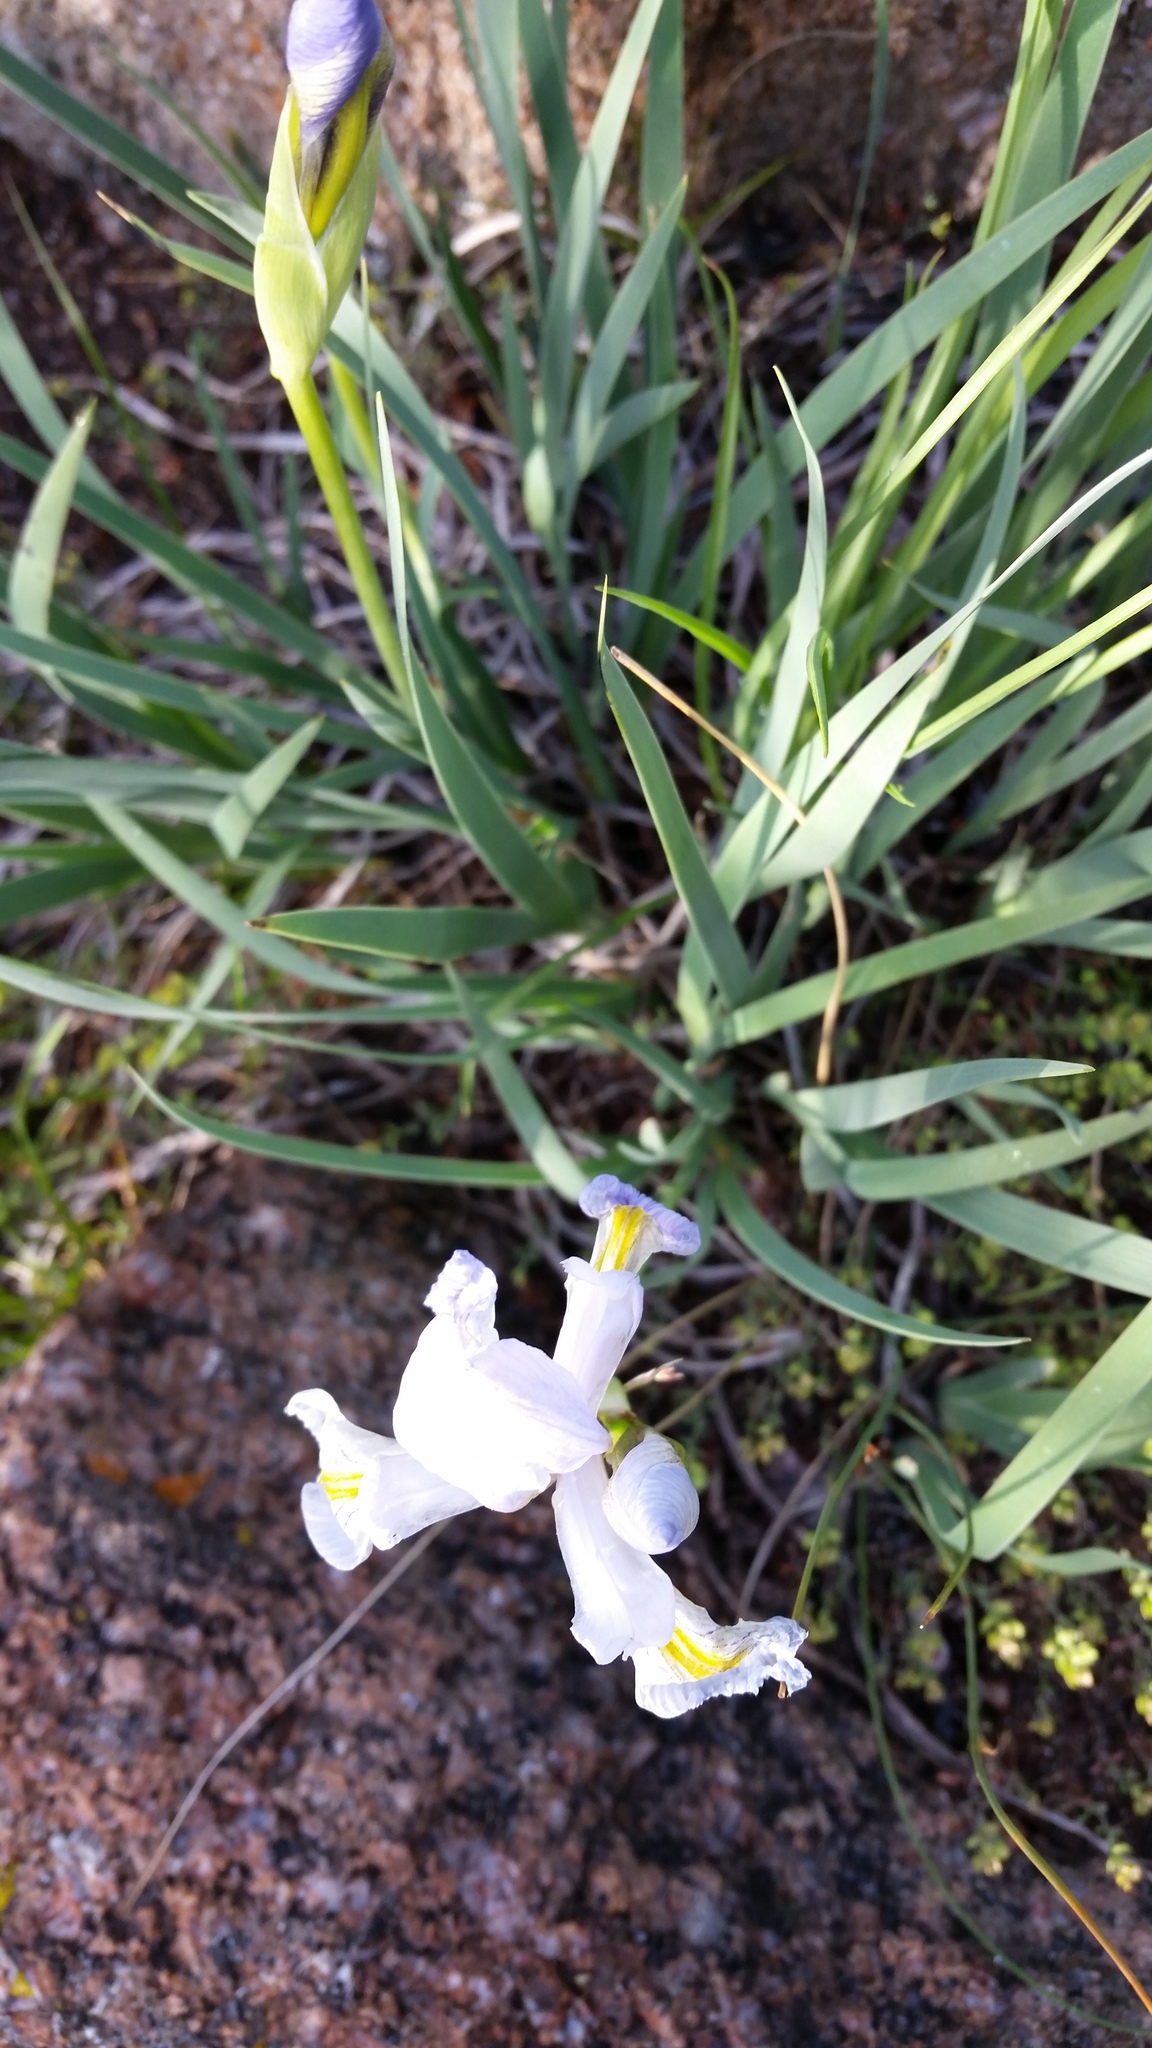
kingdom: Plantae
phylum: Tracheophyta
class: Liliopsida
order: Asparagales
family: Iridaceae
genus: Iris
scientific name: Iris missouriensis
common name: Rocky mountain iris
